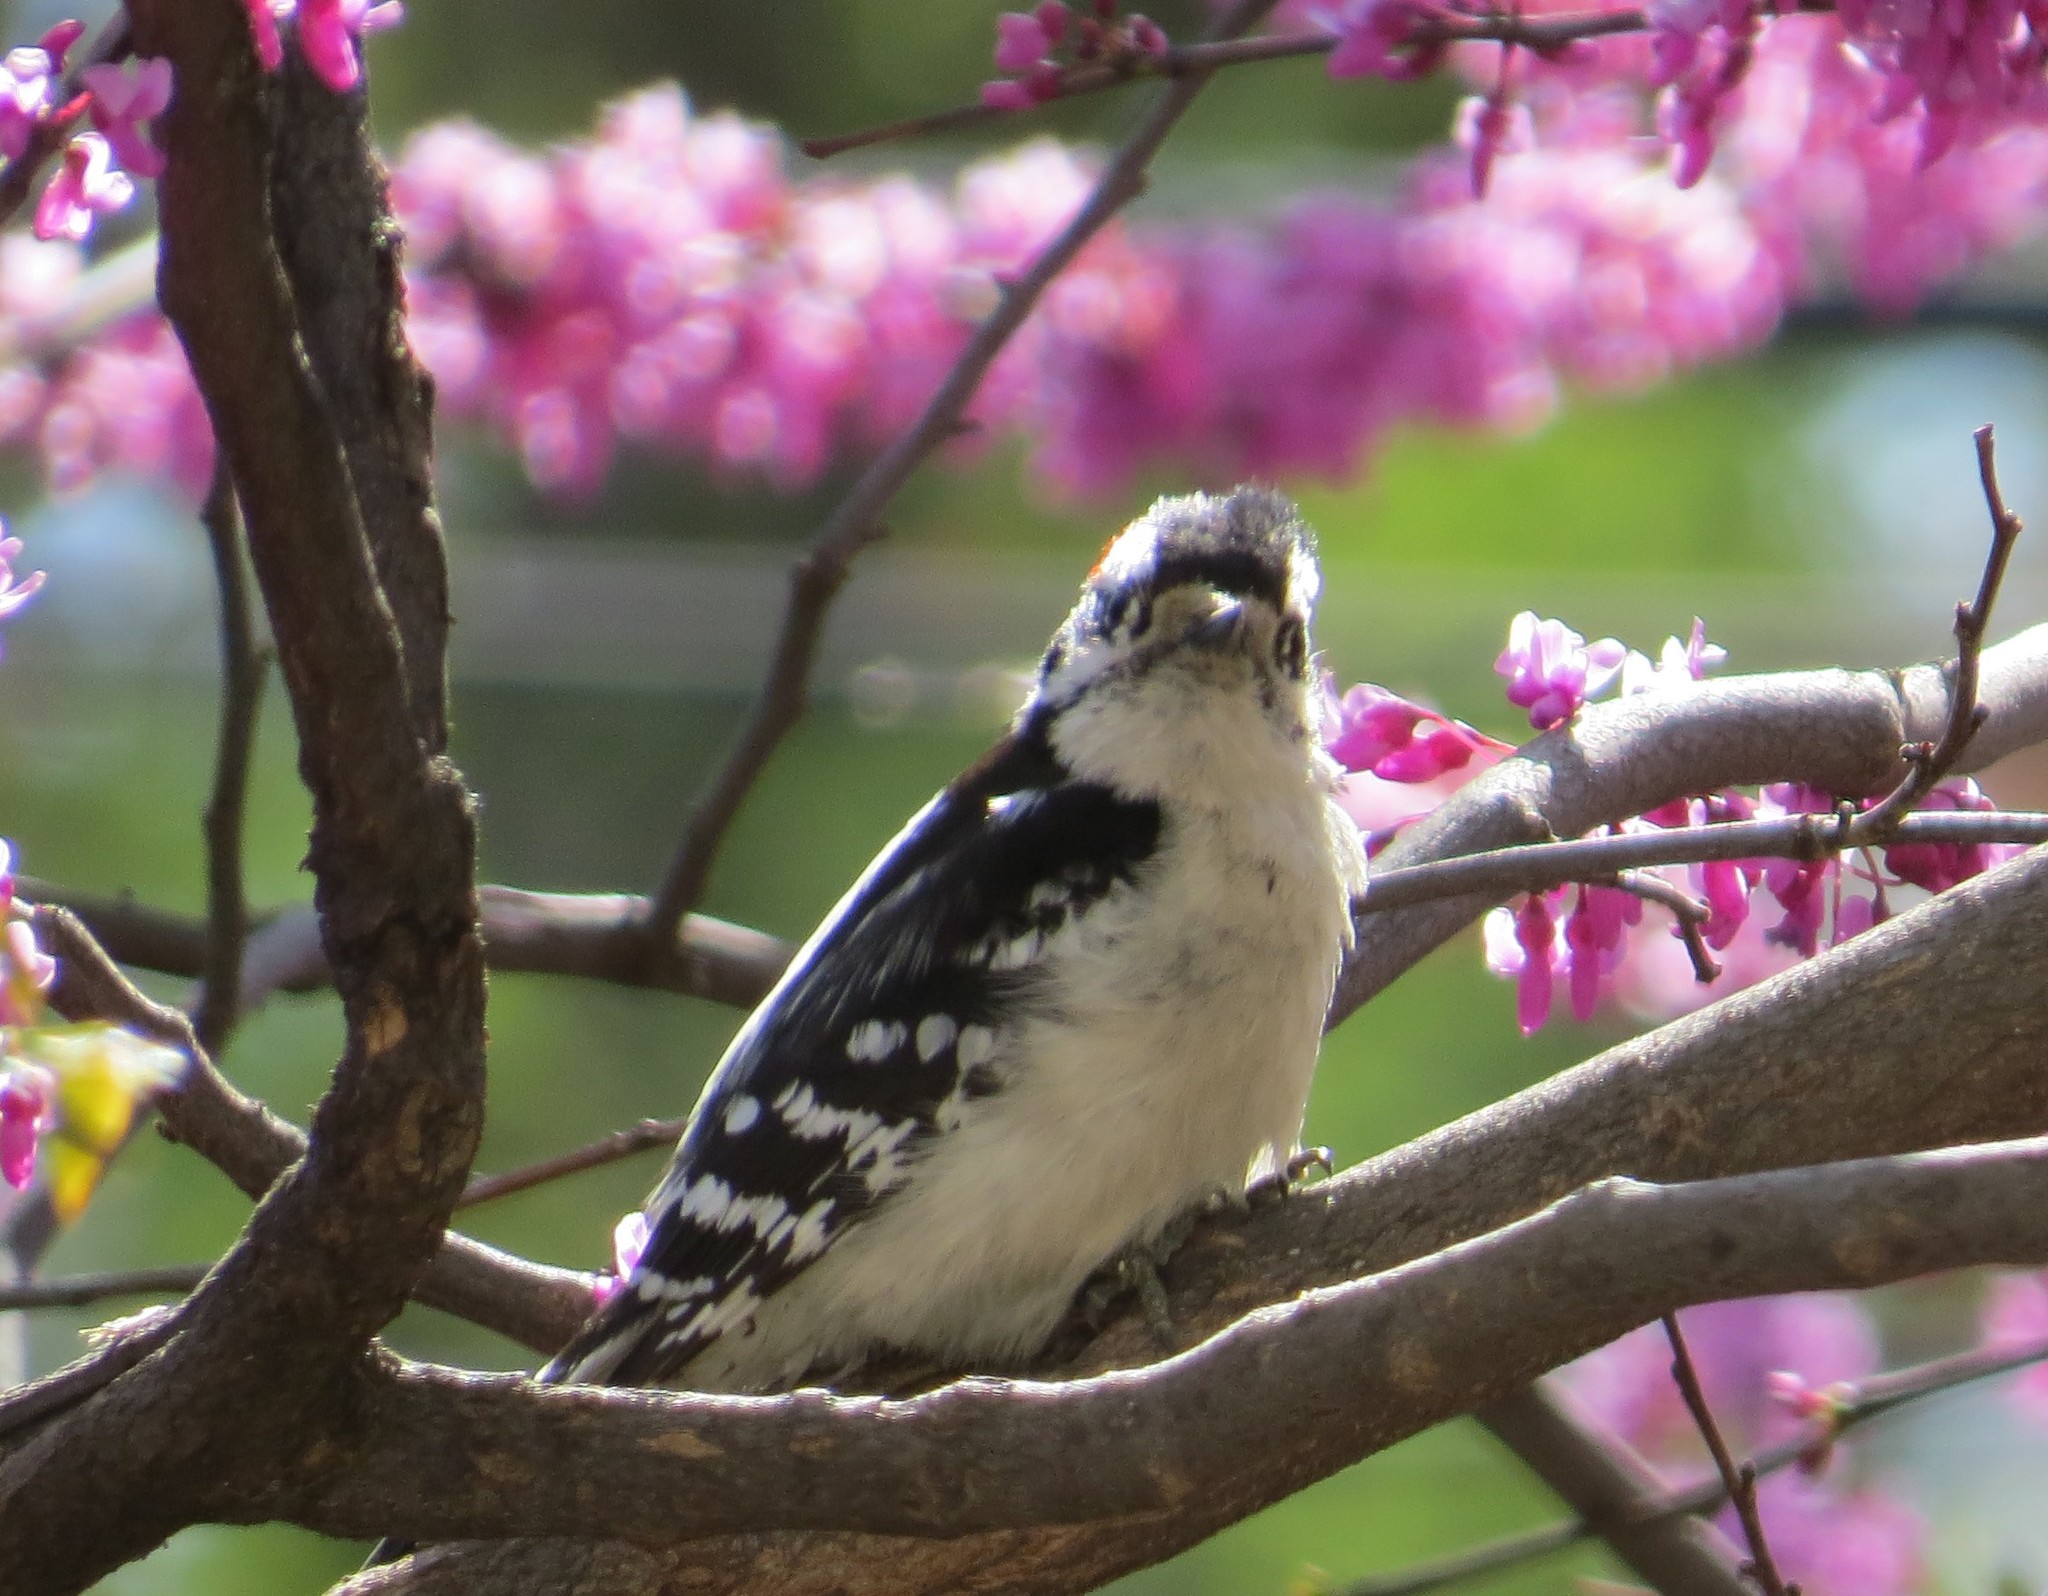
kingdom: Animalia
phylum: Chordata
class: Aves
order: Piciformes
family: Picidae
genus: Dryobates
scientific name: Dryobates pubescens
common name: Downy woodpecker
